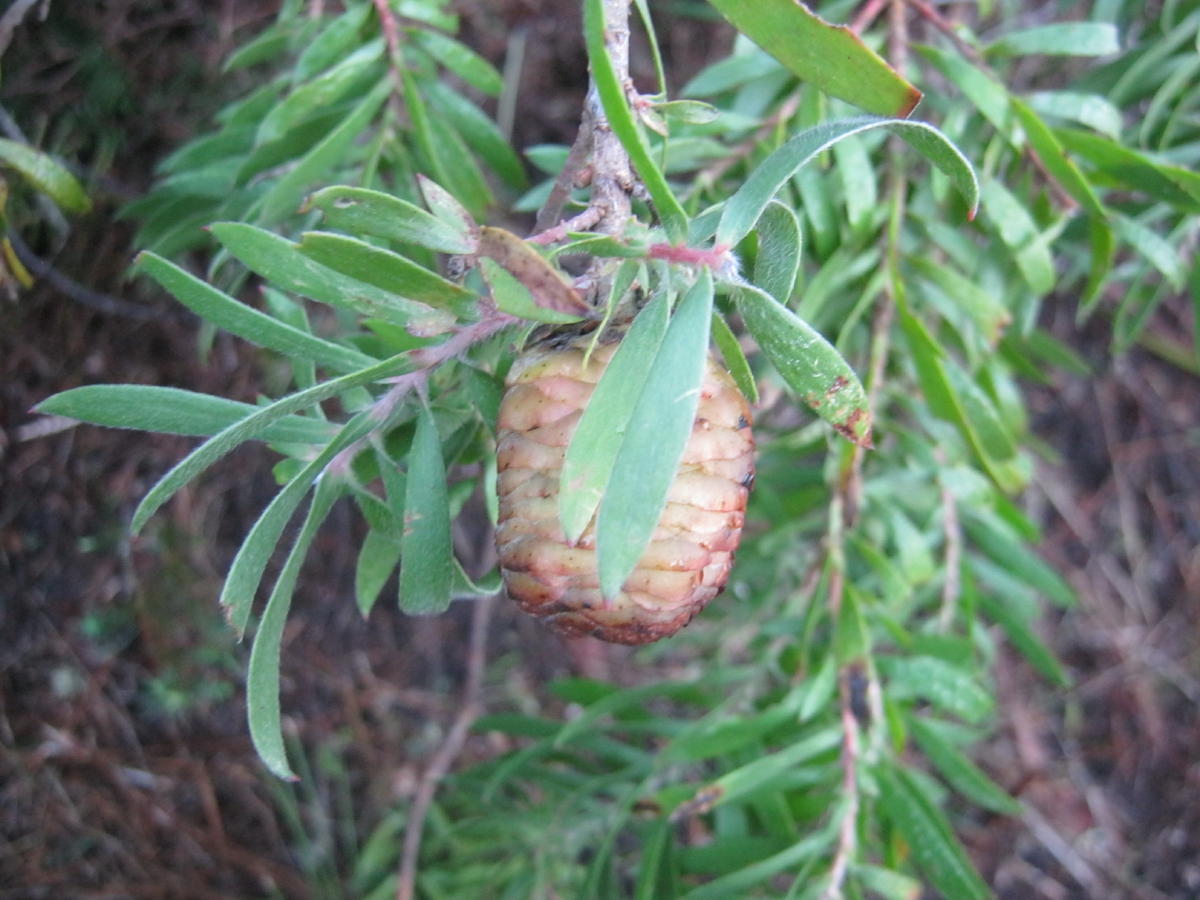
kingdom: Plantae
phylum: Tracheophyta
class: Magnoliopsida
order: Proteales
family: Proteaceae
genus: Leucadendron
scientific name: Leucadendron conicum
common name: Garden route conebush
